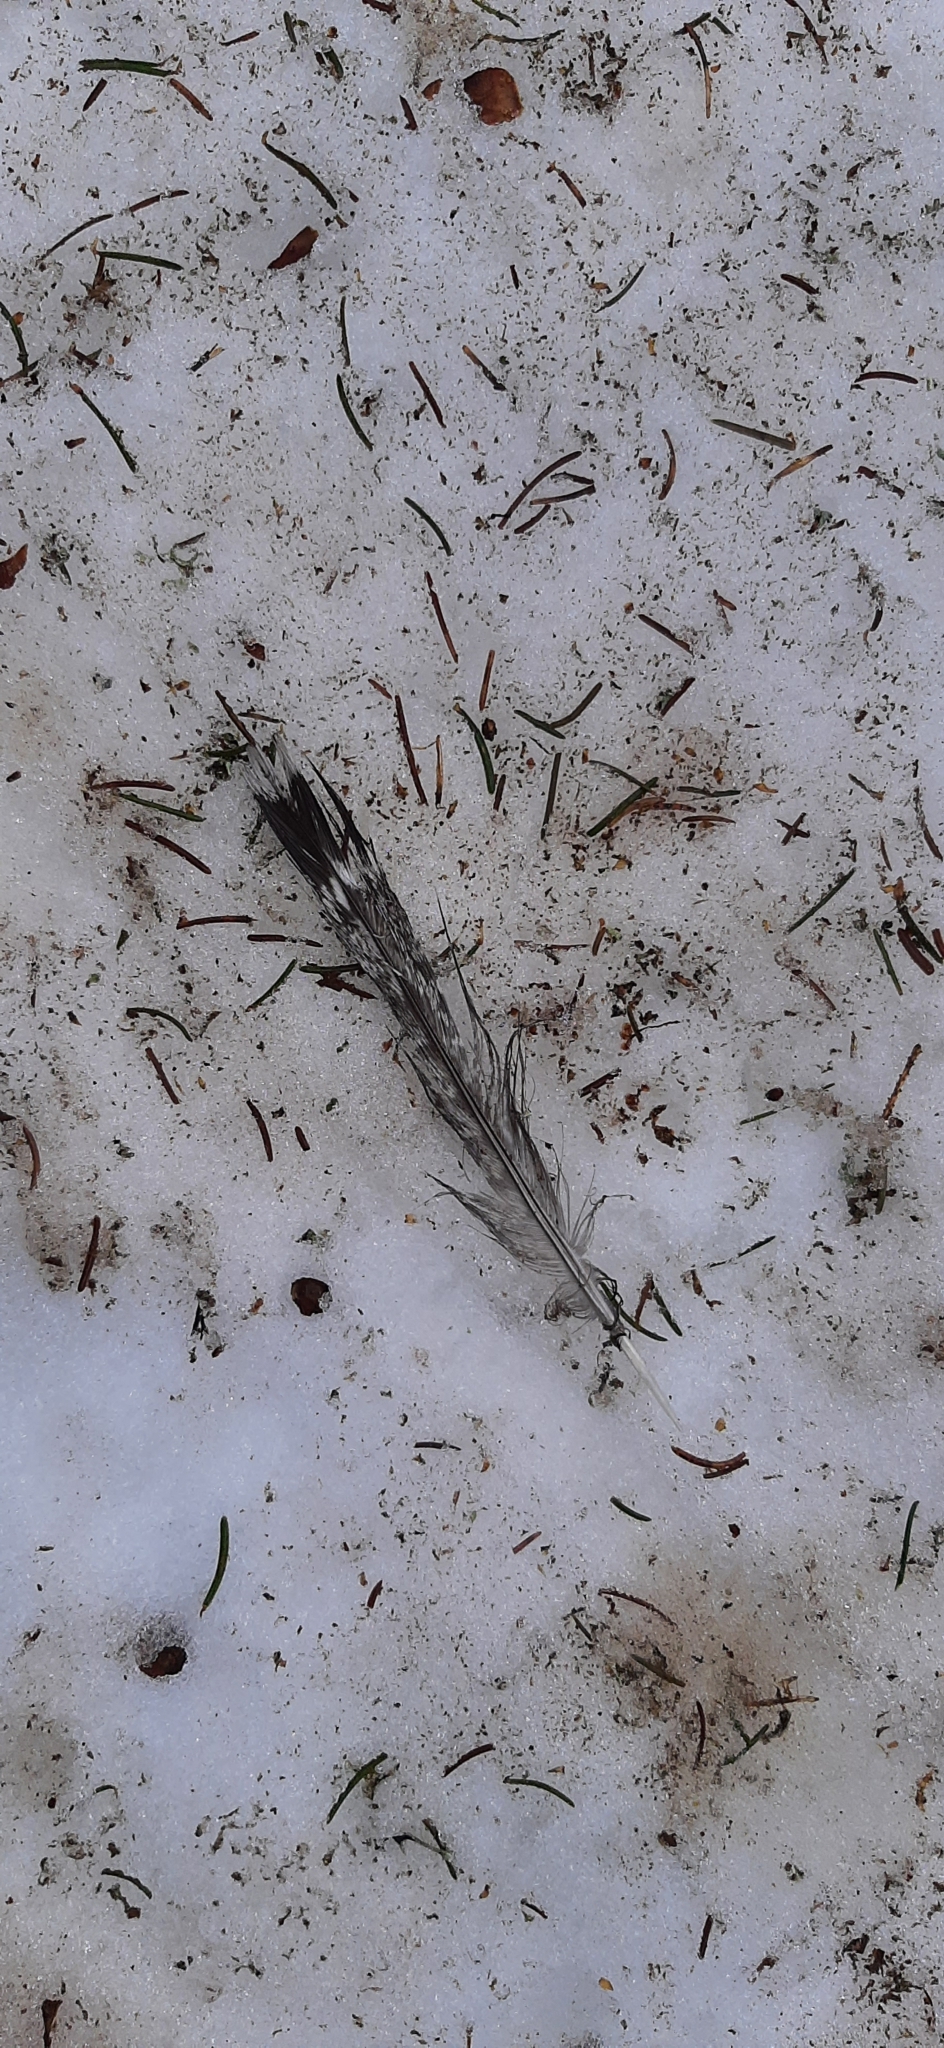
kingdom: Animalia
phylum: Chordata
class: Aves
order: Galliformes
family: Phasianidae
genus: Tetrastes
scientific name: Tetrastes bonasia
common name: Hazel grouse
